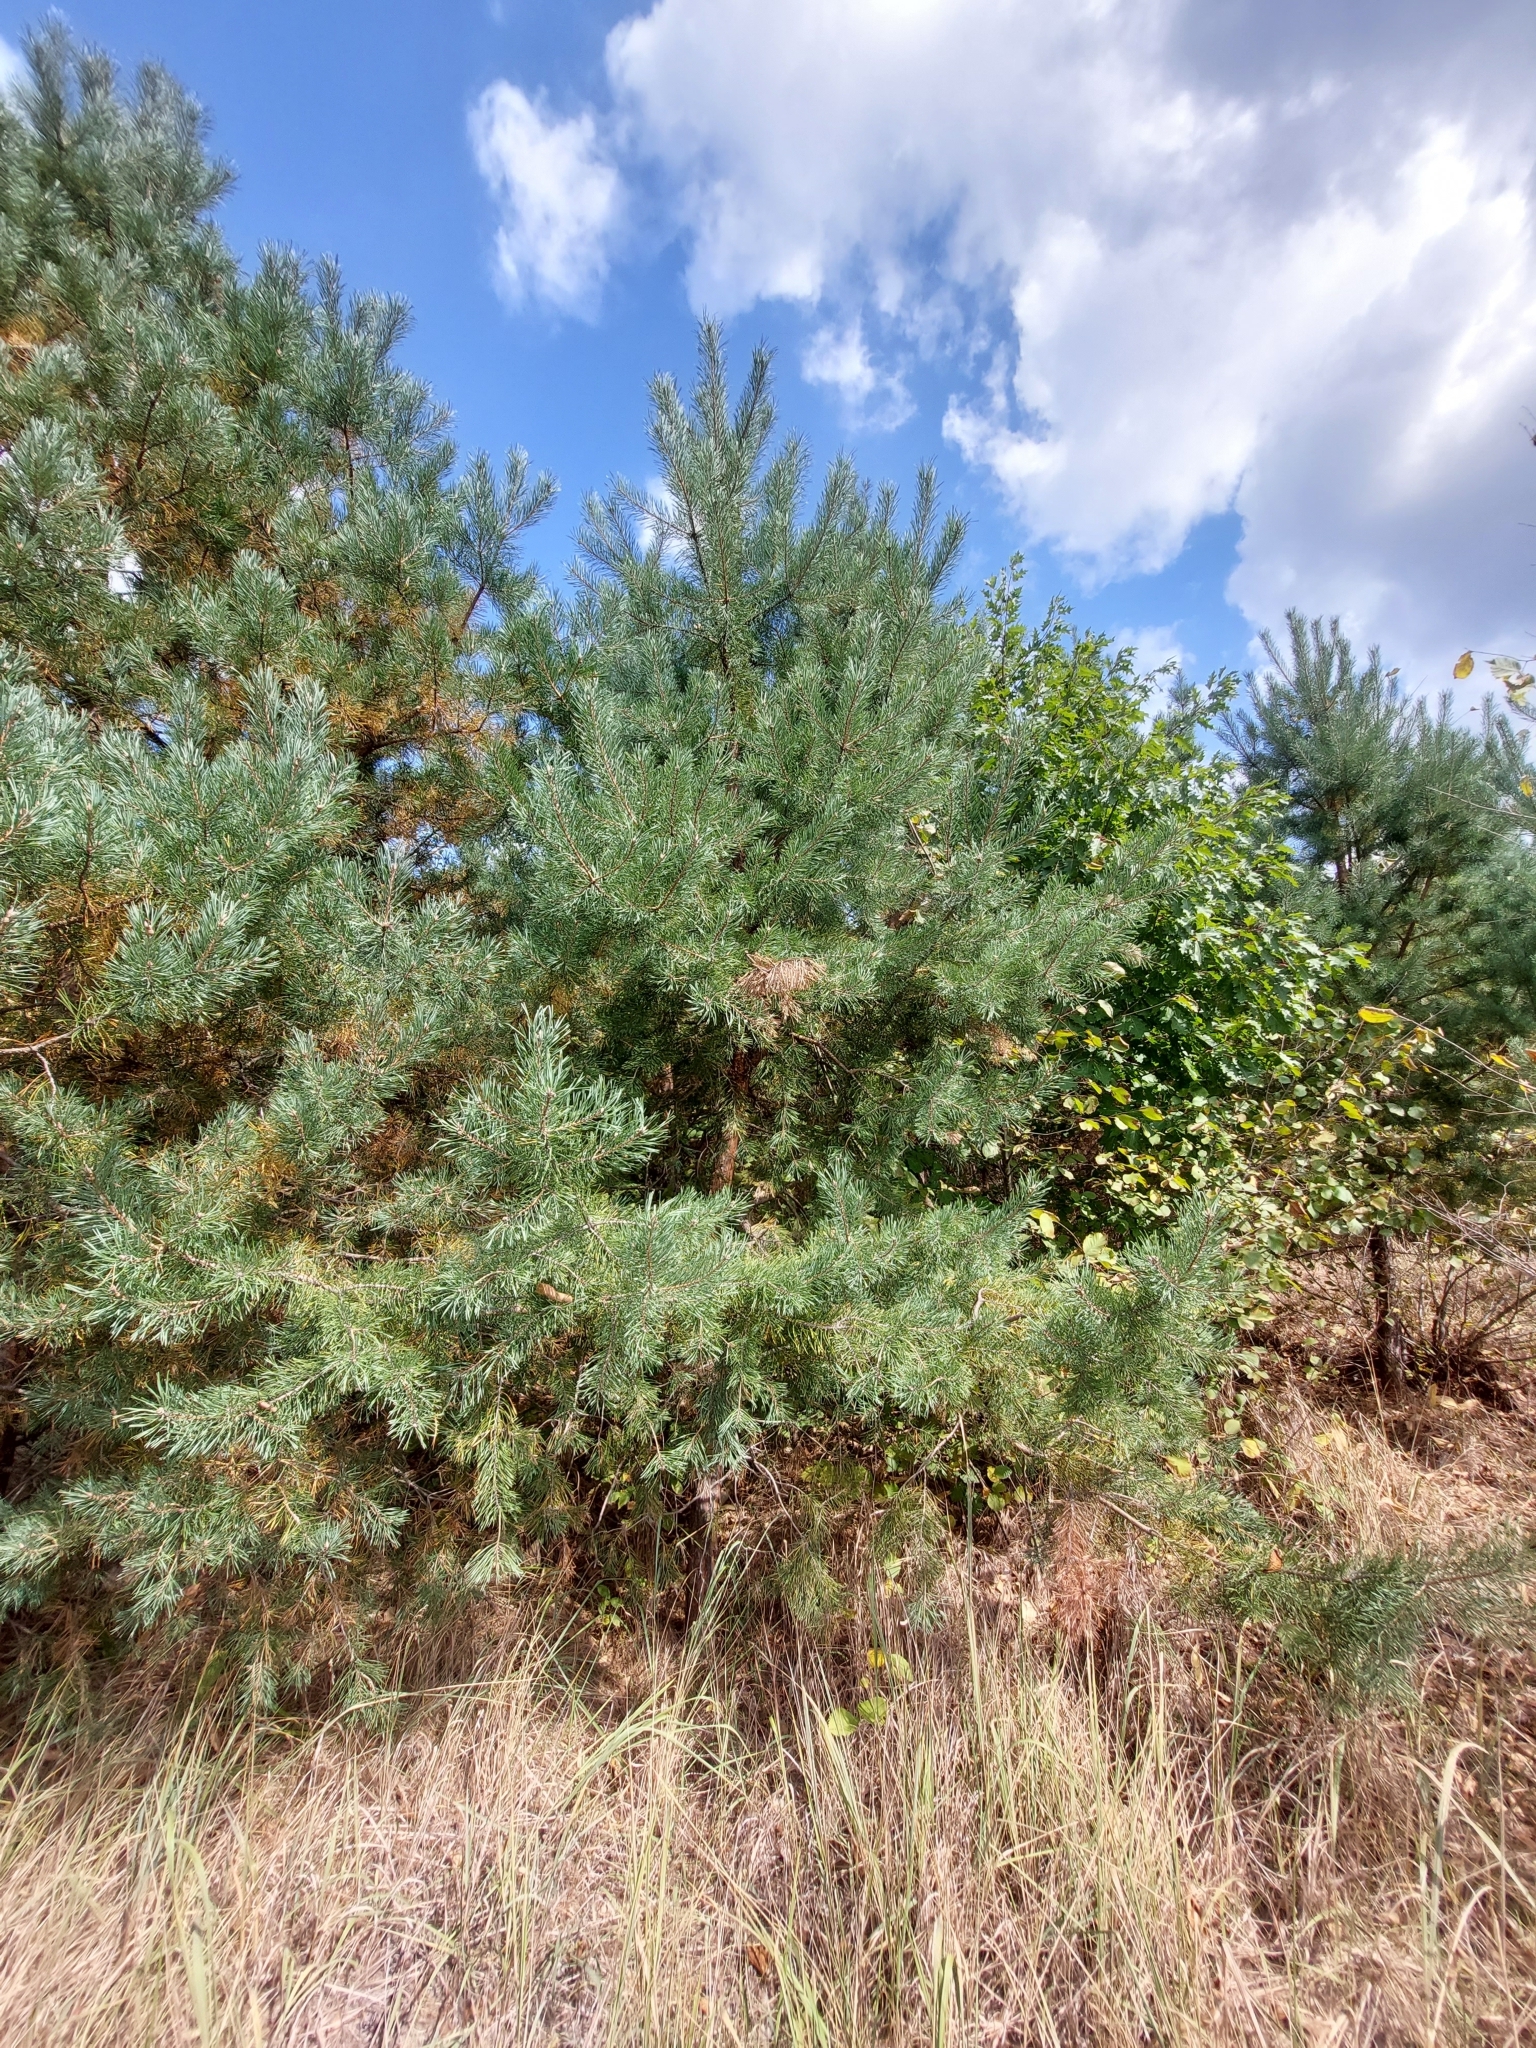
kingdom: Plantae
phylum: Tracheophyta
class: Pinopsida
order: Pinales
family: Pinaceae
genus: Pinus
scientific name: Pinus sylvestris
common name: Scots pine
